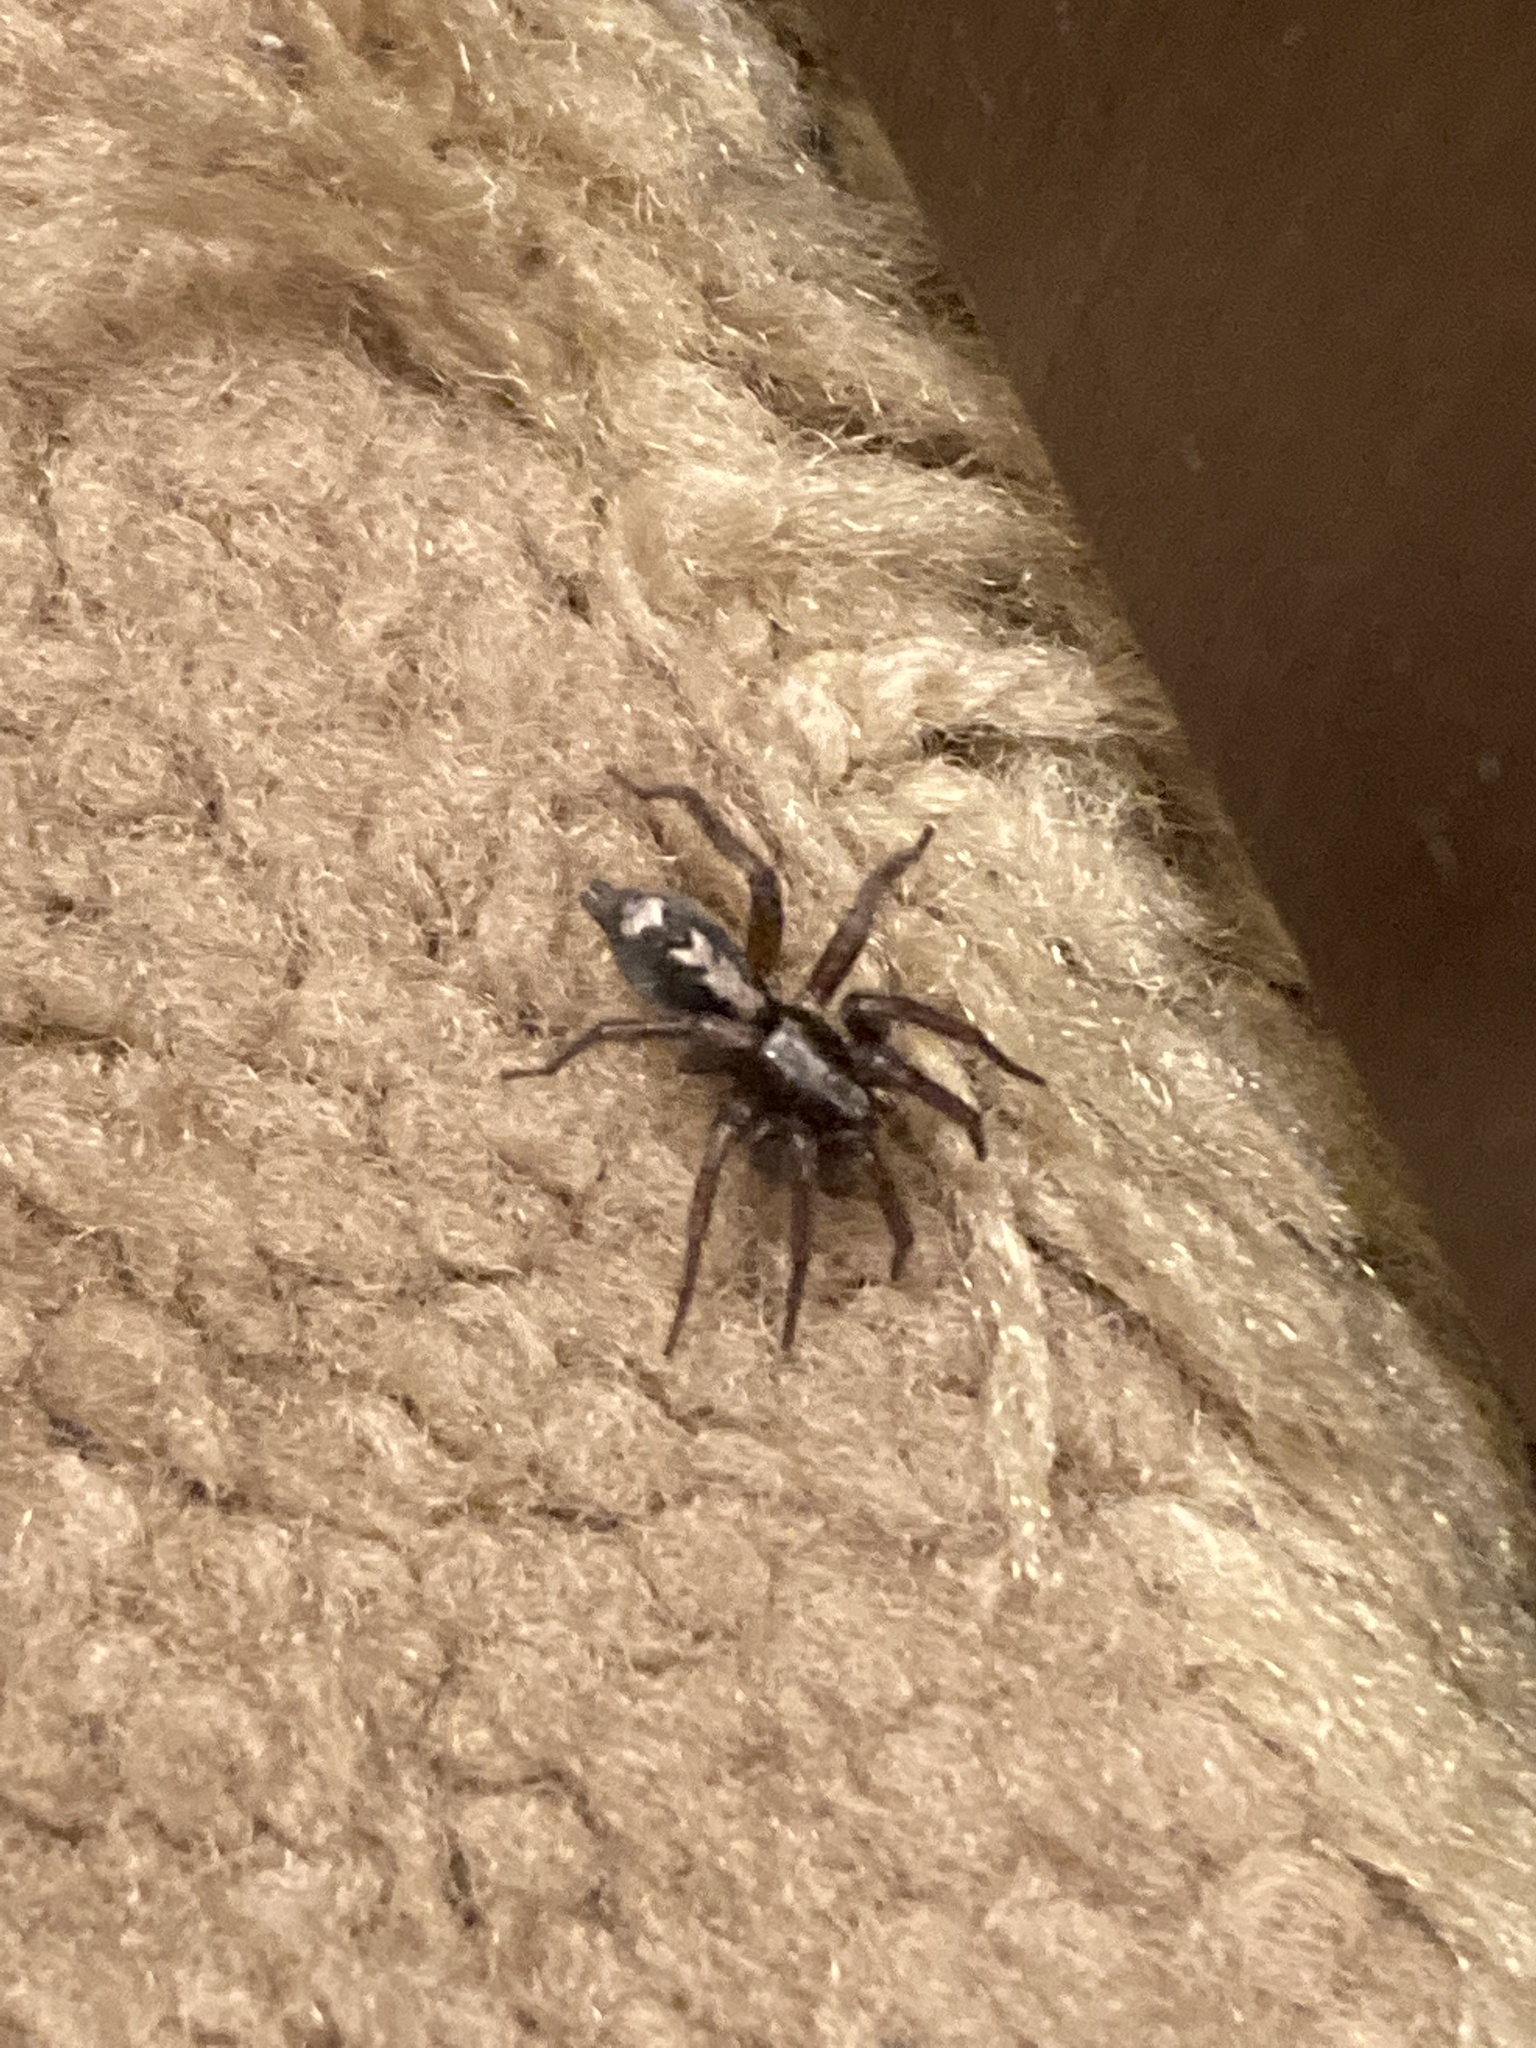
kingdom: Animalia
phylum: Arthropoda
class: Arachnida
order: Araneae
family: Gnaphosidae
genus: Herpyllus
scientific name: Herpyllus ecclesiasticus
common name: Eastern parson spider
